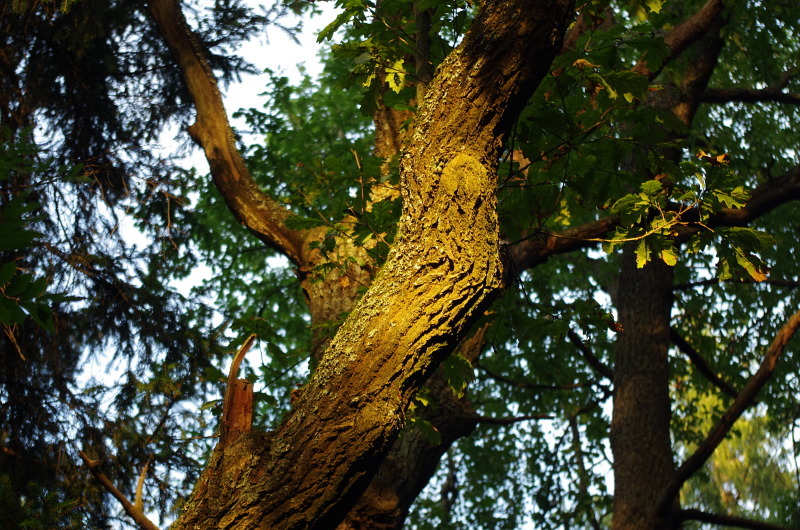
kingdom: Plantae
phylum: Tracheophyta
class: Magnoliopsida
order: Fagales
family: Fagaceae
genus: Quercus
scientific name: Quercus robur
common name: Pedunculate oak
